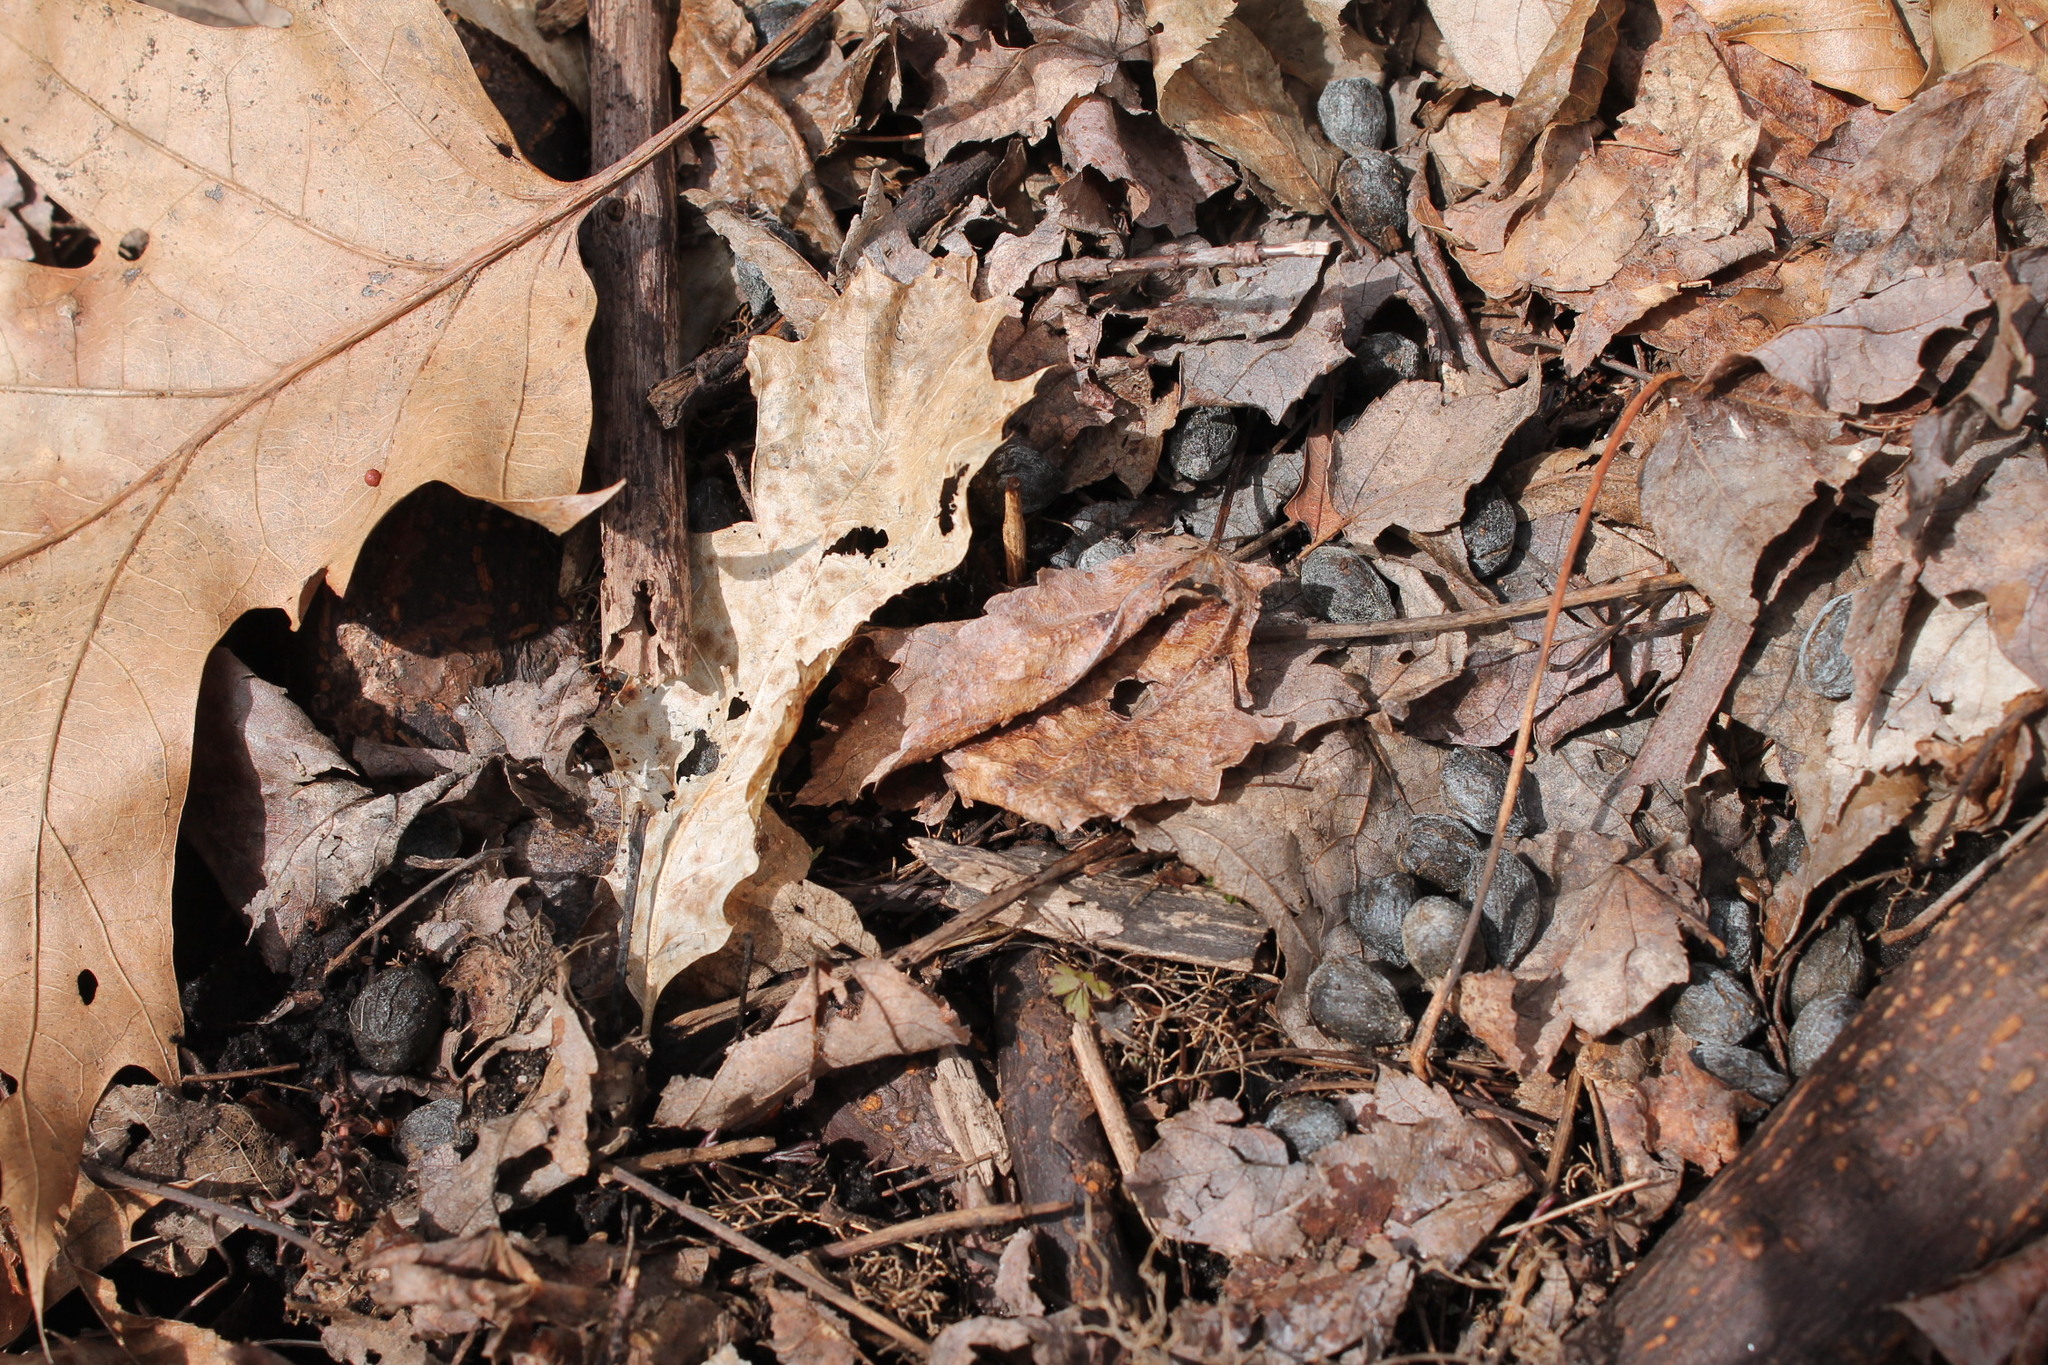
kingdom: Animalia
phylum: Chordata
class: Mammalia
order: Artiodactyla
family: Cervidae
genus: Odocoileus
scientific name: Odocoileus virginianus
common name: White-tailed deer
